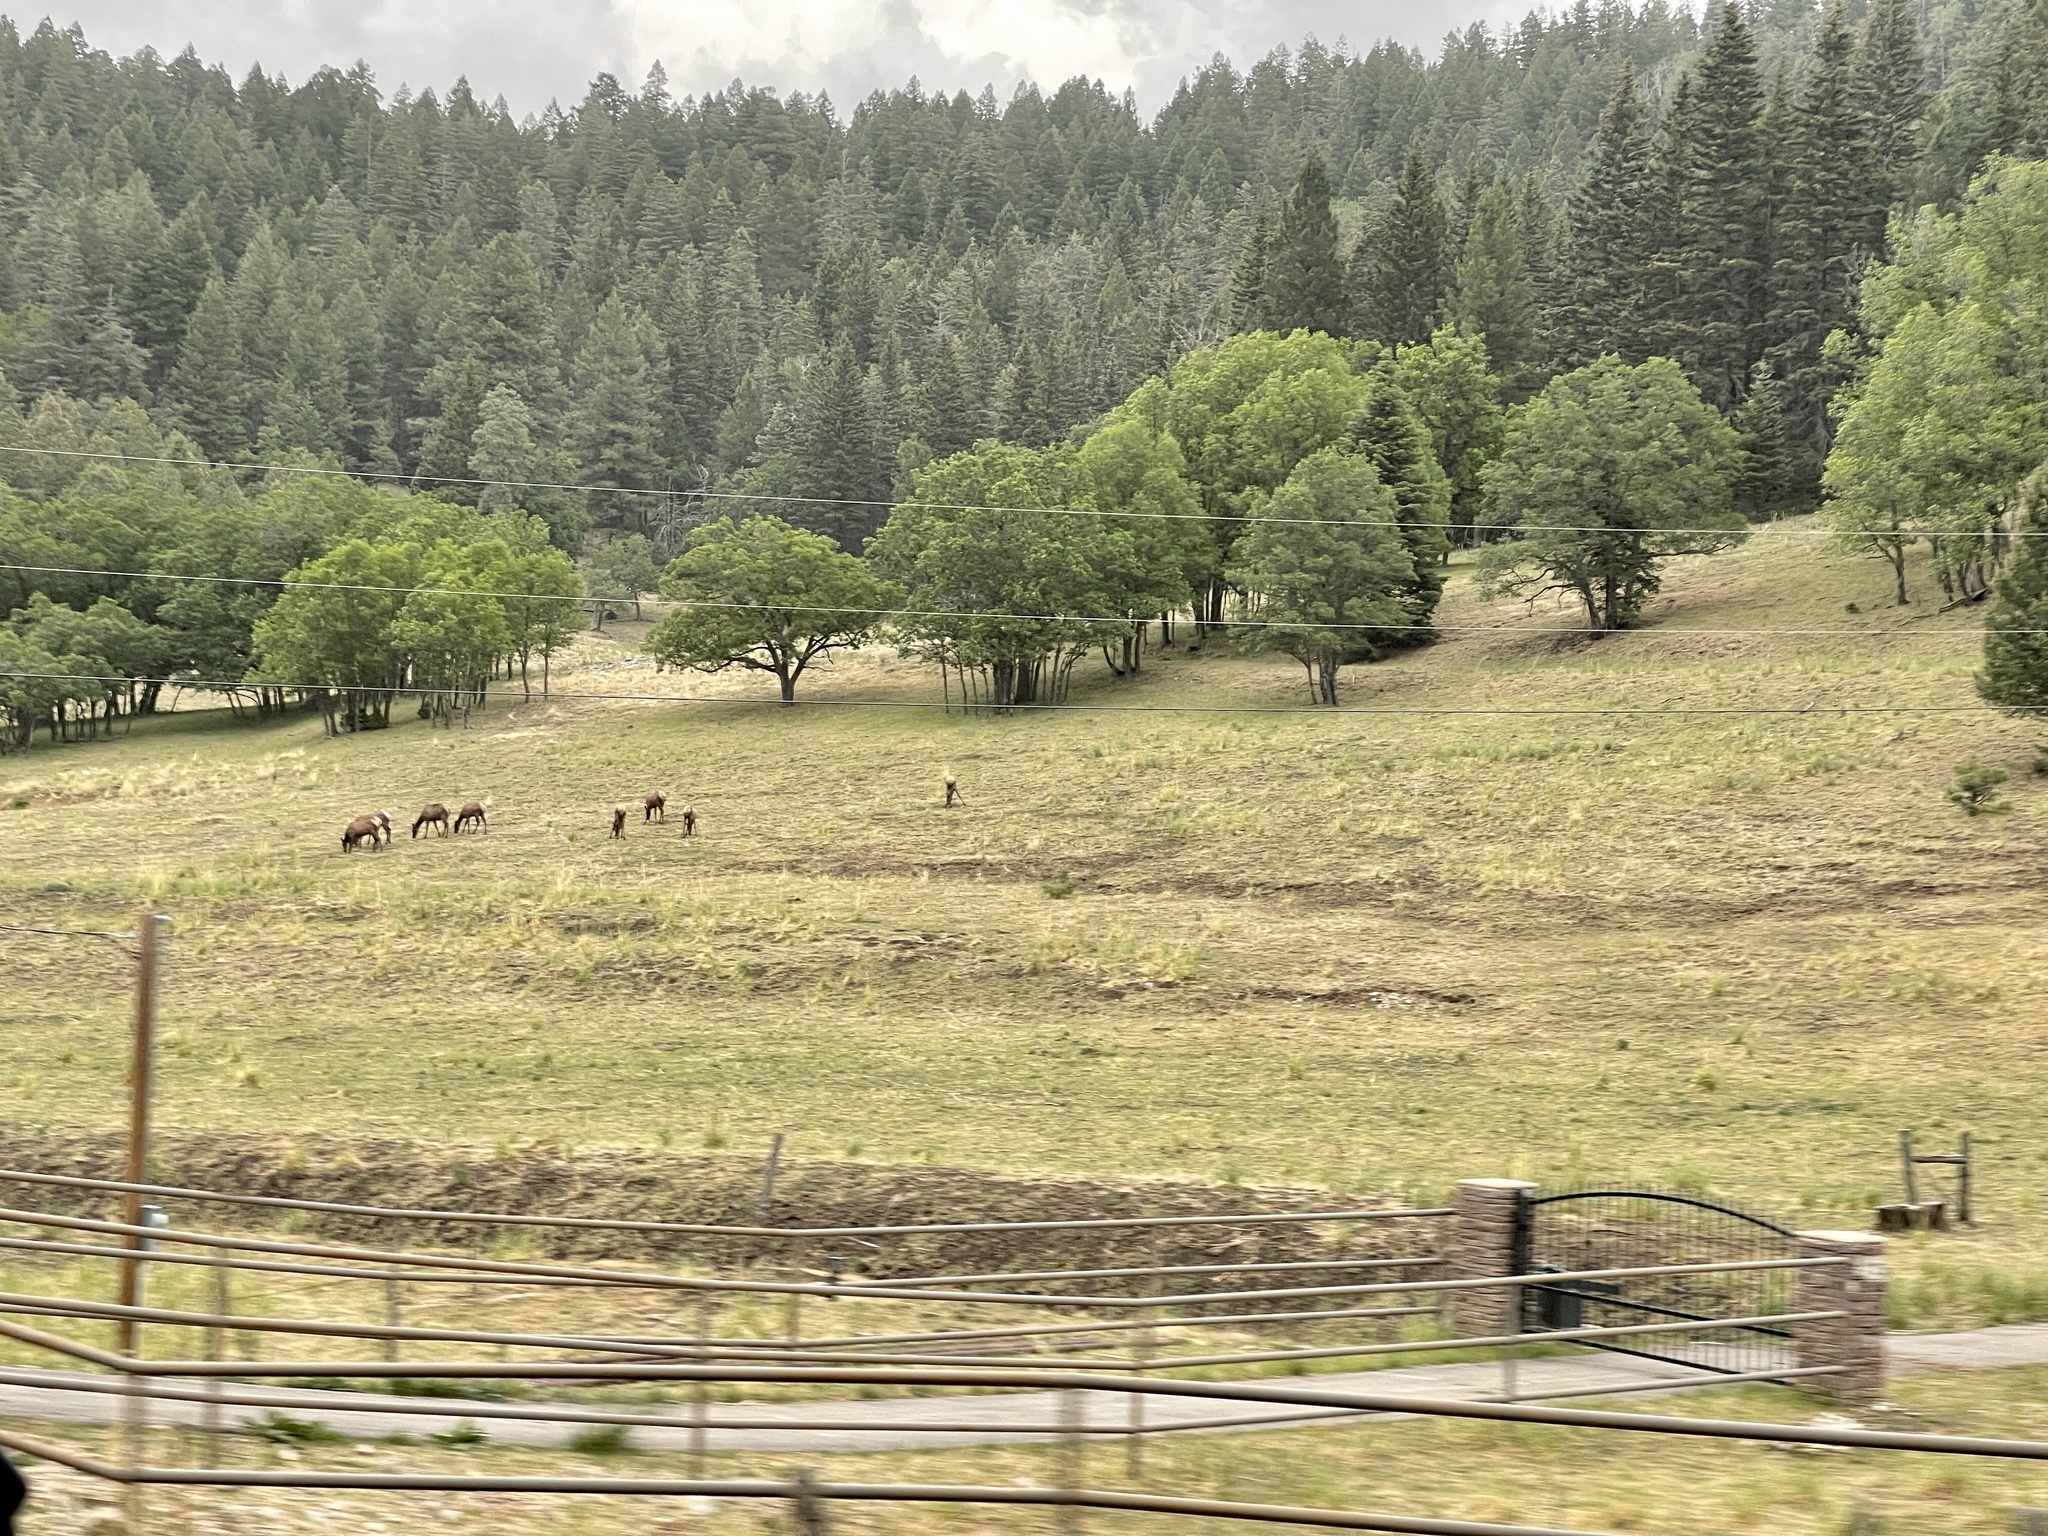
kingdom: Animalia
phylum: Chordata
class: Mammalia
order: Artiodactyla
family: Cervidae
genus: Cervus
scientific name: Cervus elaphus
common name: Red deer
